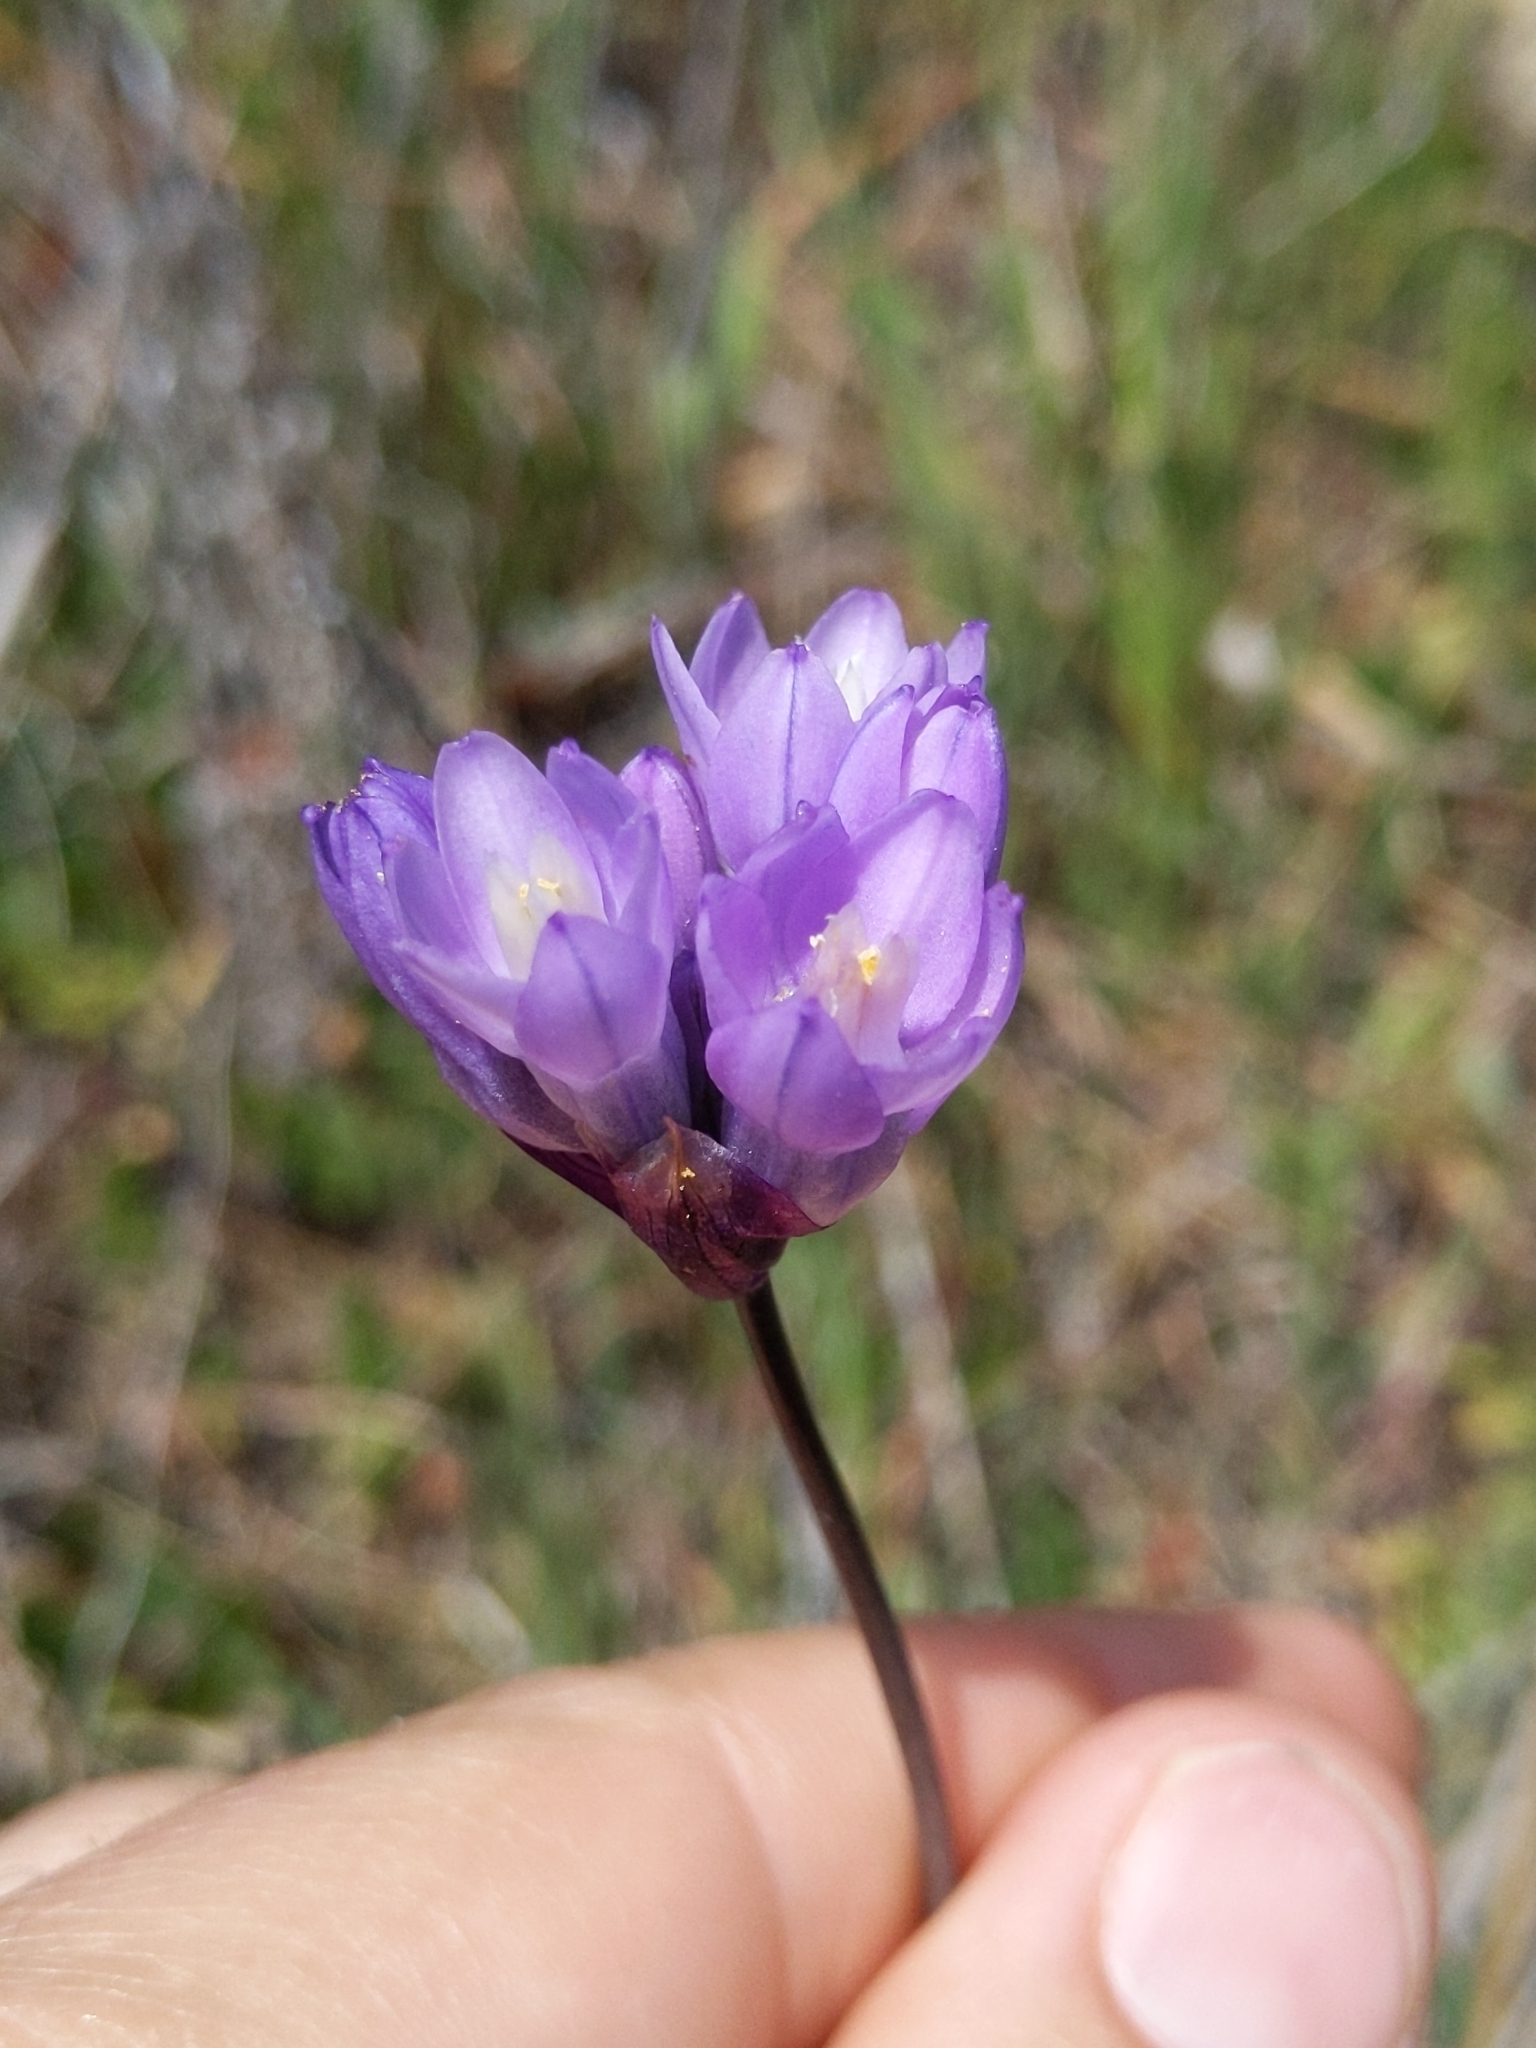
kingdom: Plantae
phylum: Tracheophyta
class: Liliopsida
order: Asparagales
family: Asparagaceae
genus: Dipterostemon
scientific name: Dipterostemon capitatus
